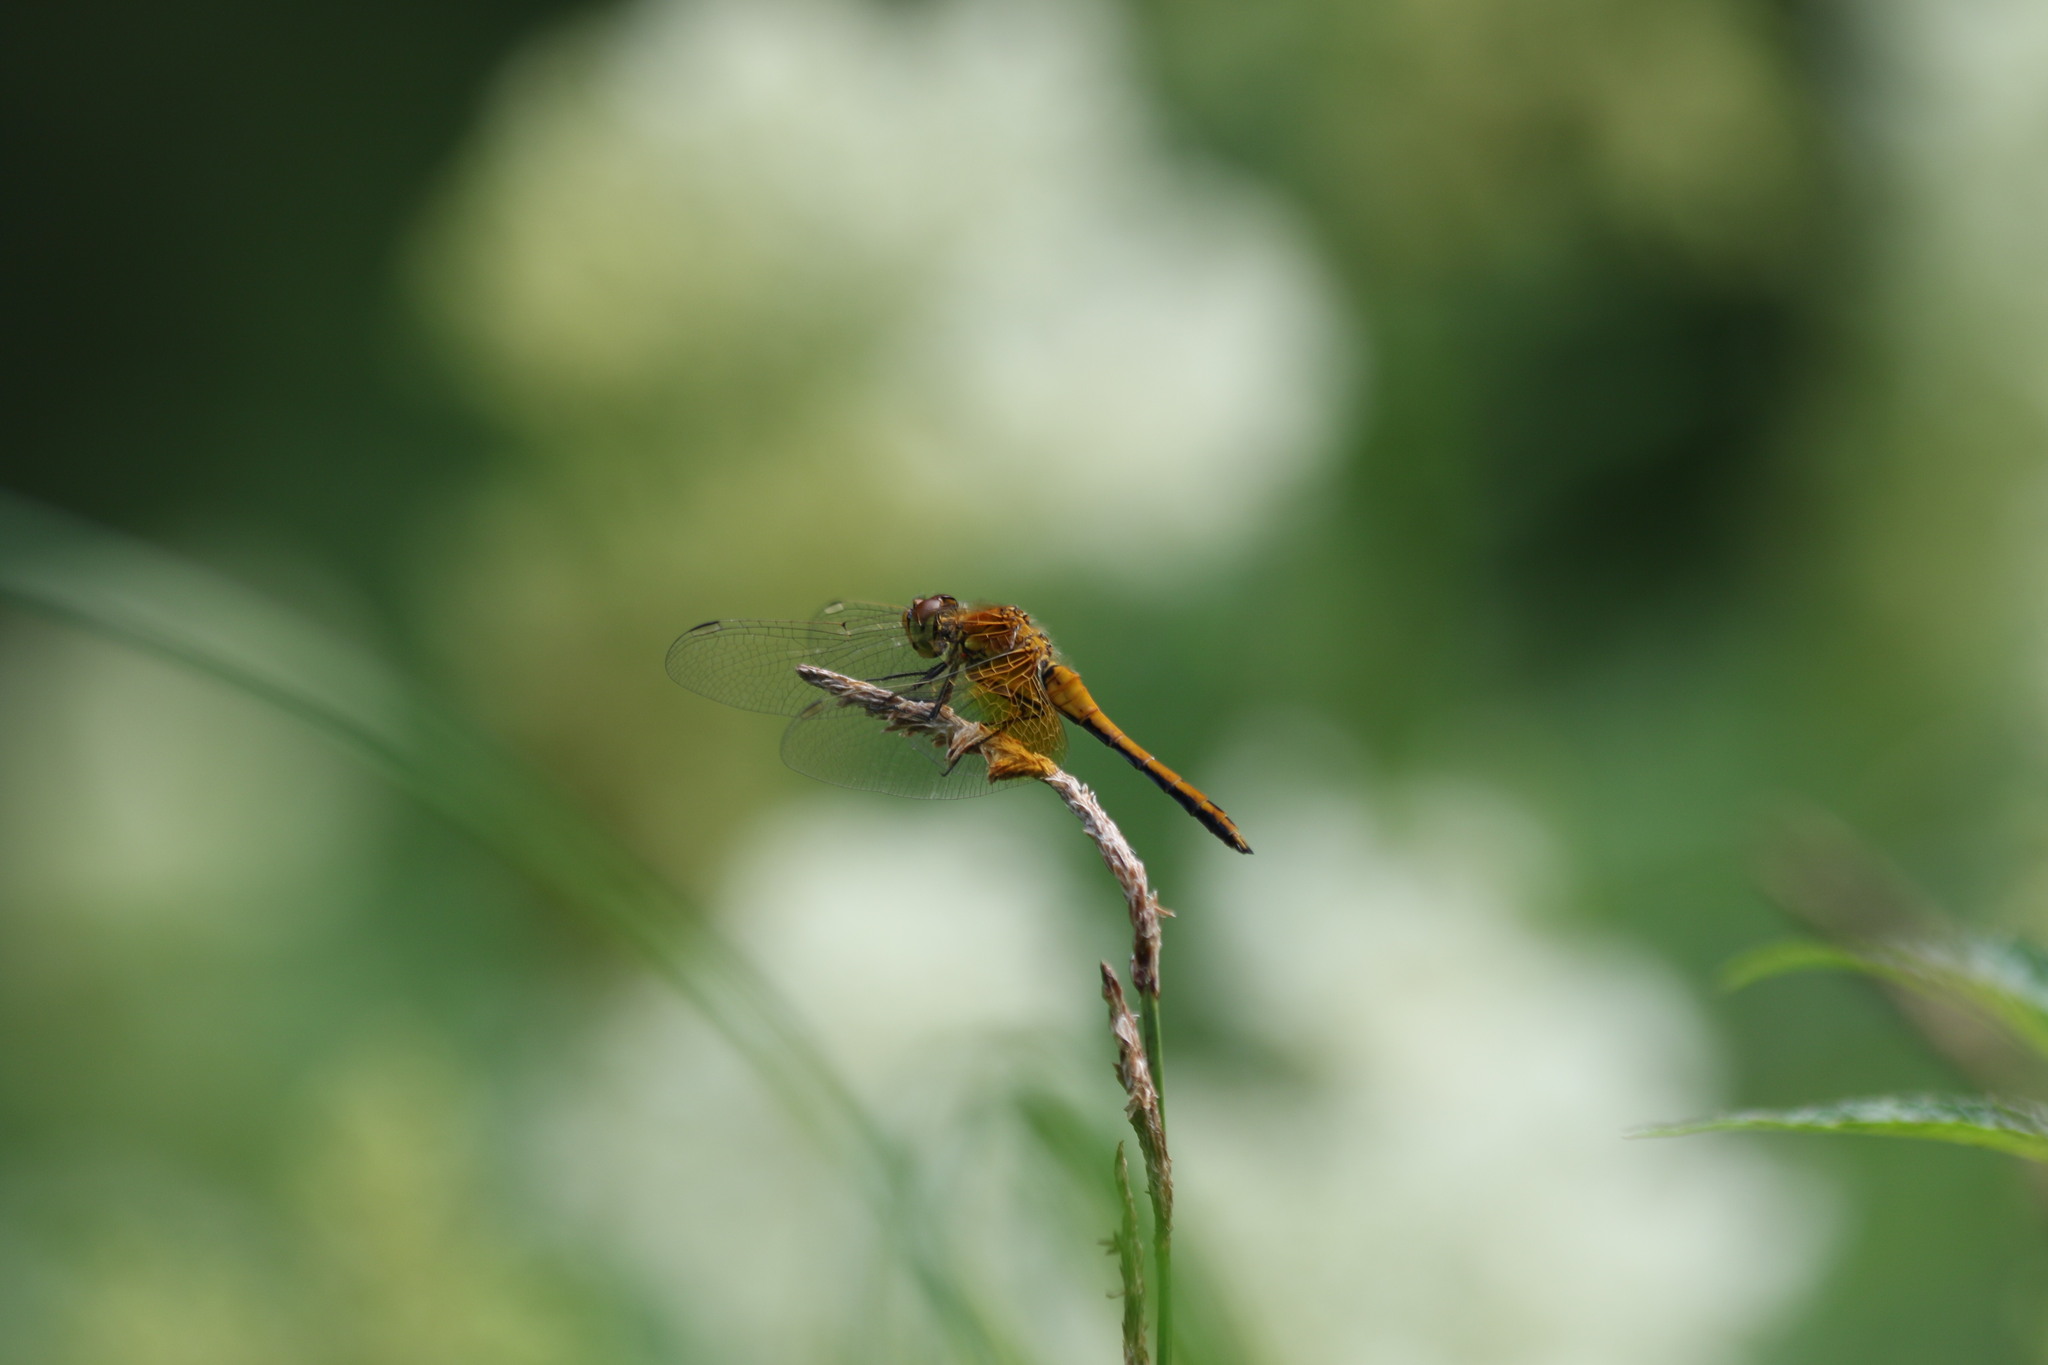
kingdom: Animalia
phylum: Arthropoda
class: Insecta
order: Odonata
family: Libellulidae
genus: Sympetrum
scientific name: Sympetrum flaveolum
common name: Yellow-winged darter
